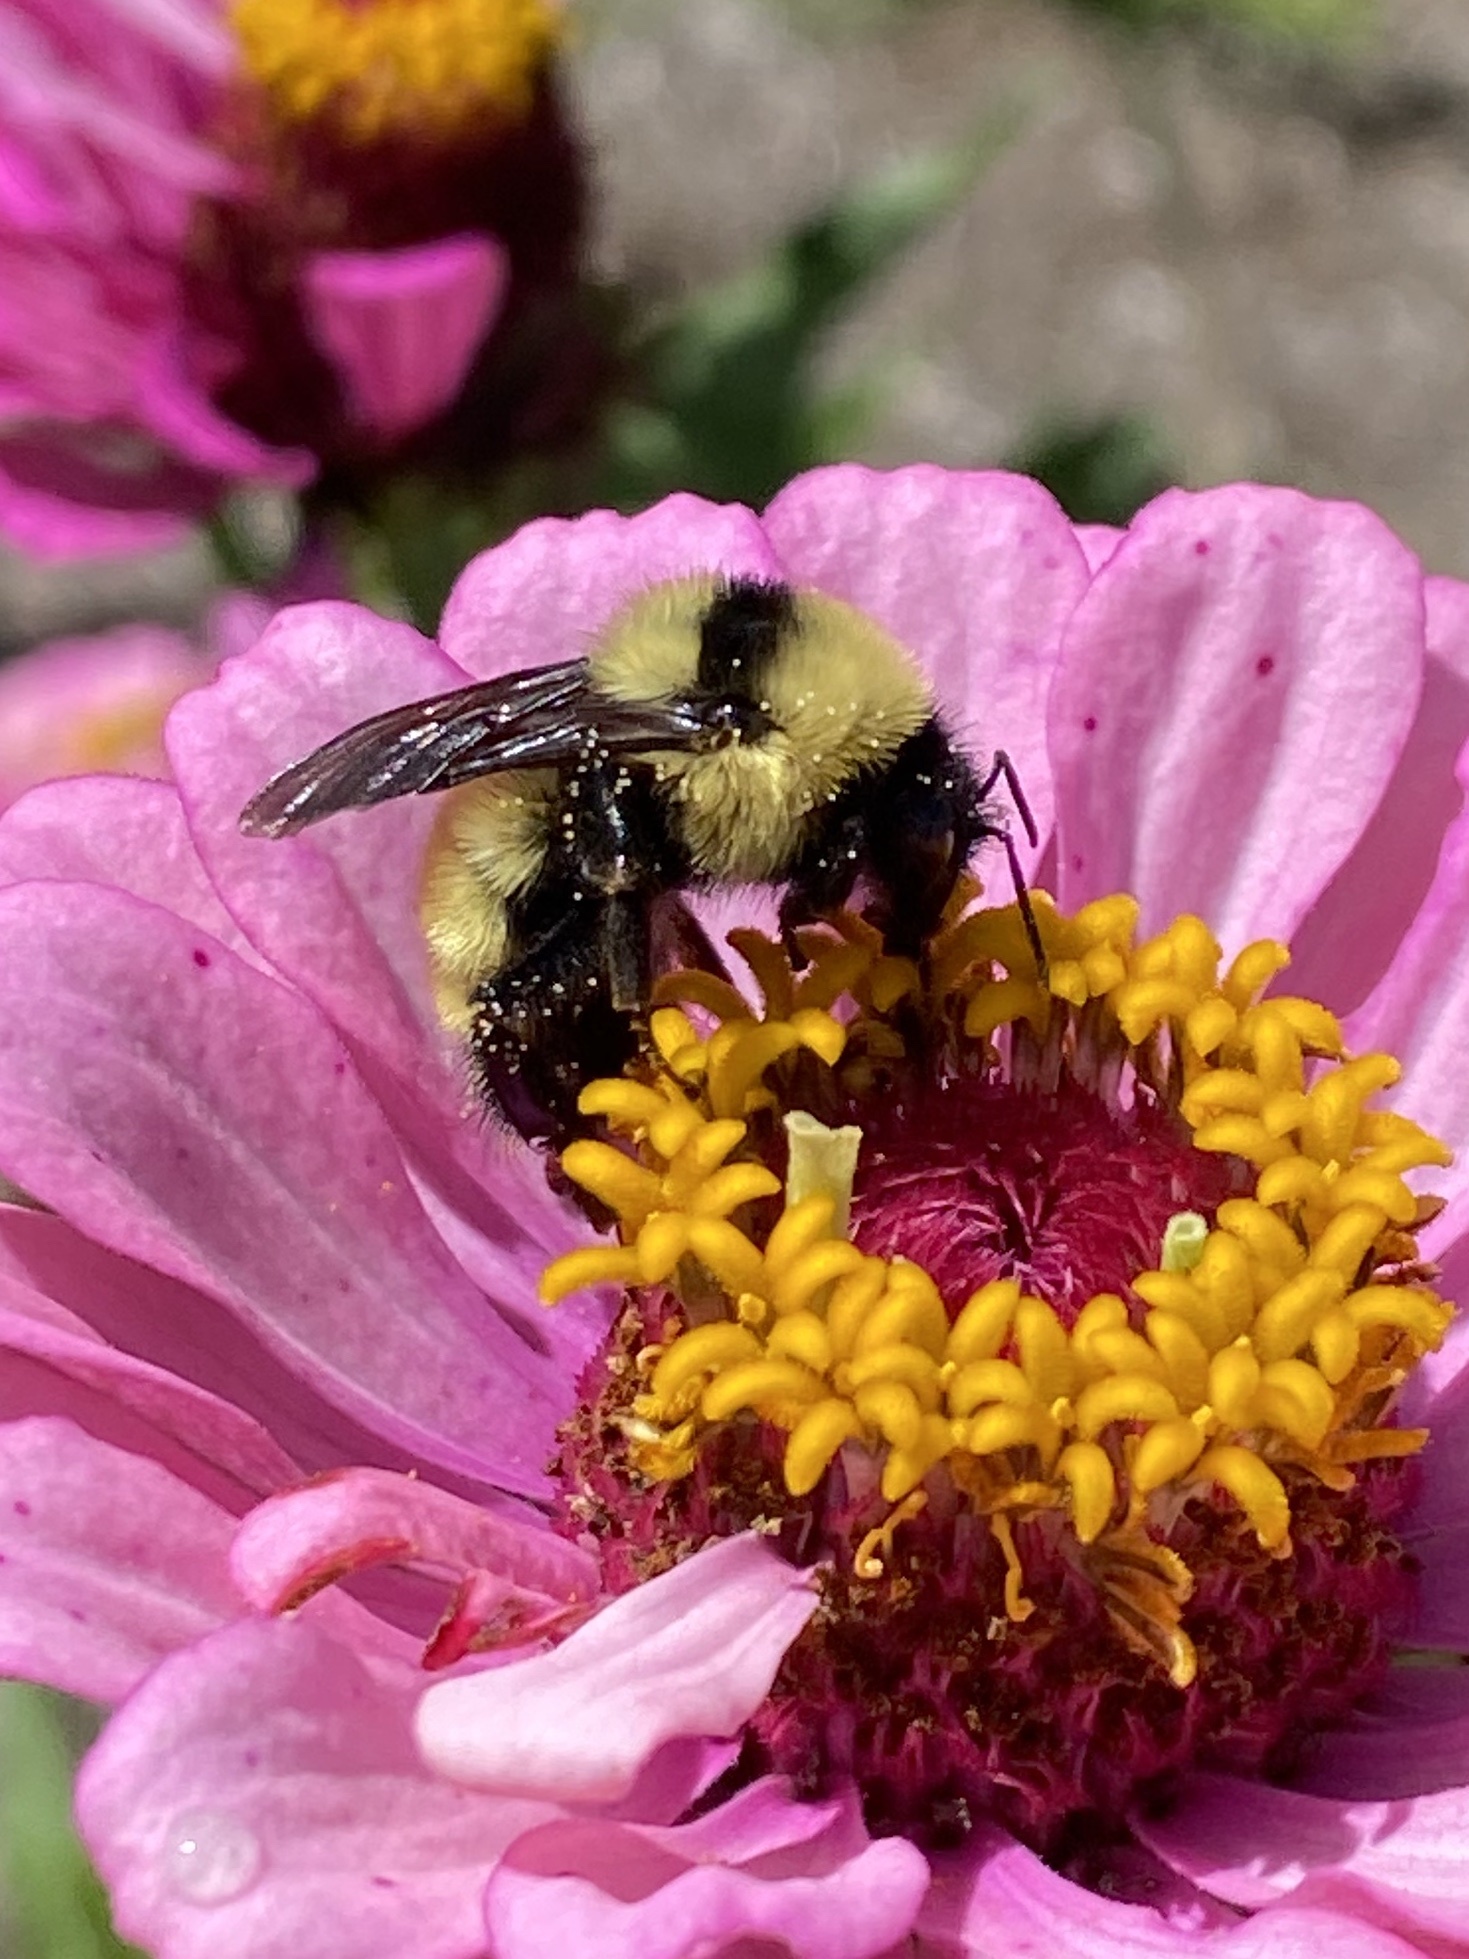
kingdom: Animalia
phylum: Arthropoda
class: Insecta
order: Hymenoptera
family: Apidae
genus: Bombus
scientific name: Bombus fervidus
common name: Yellow bumble bee
